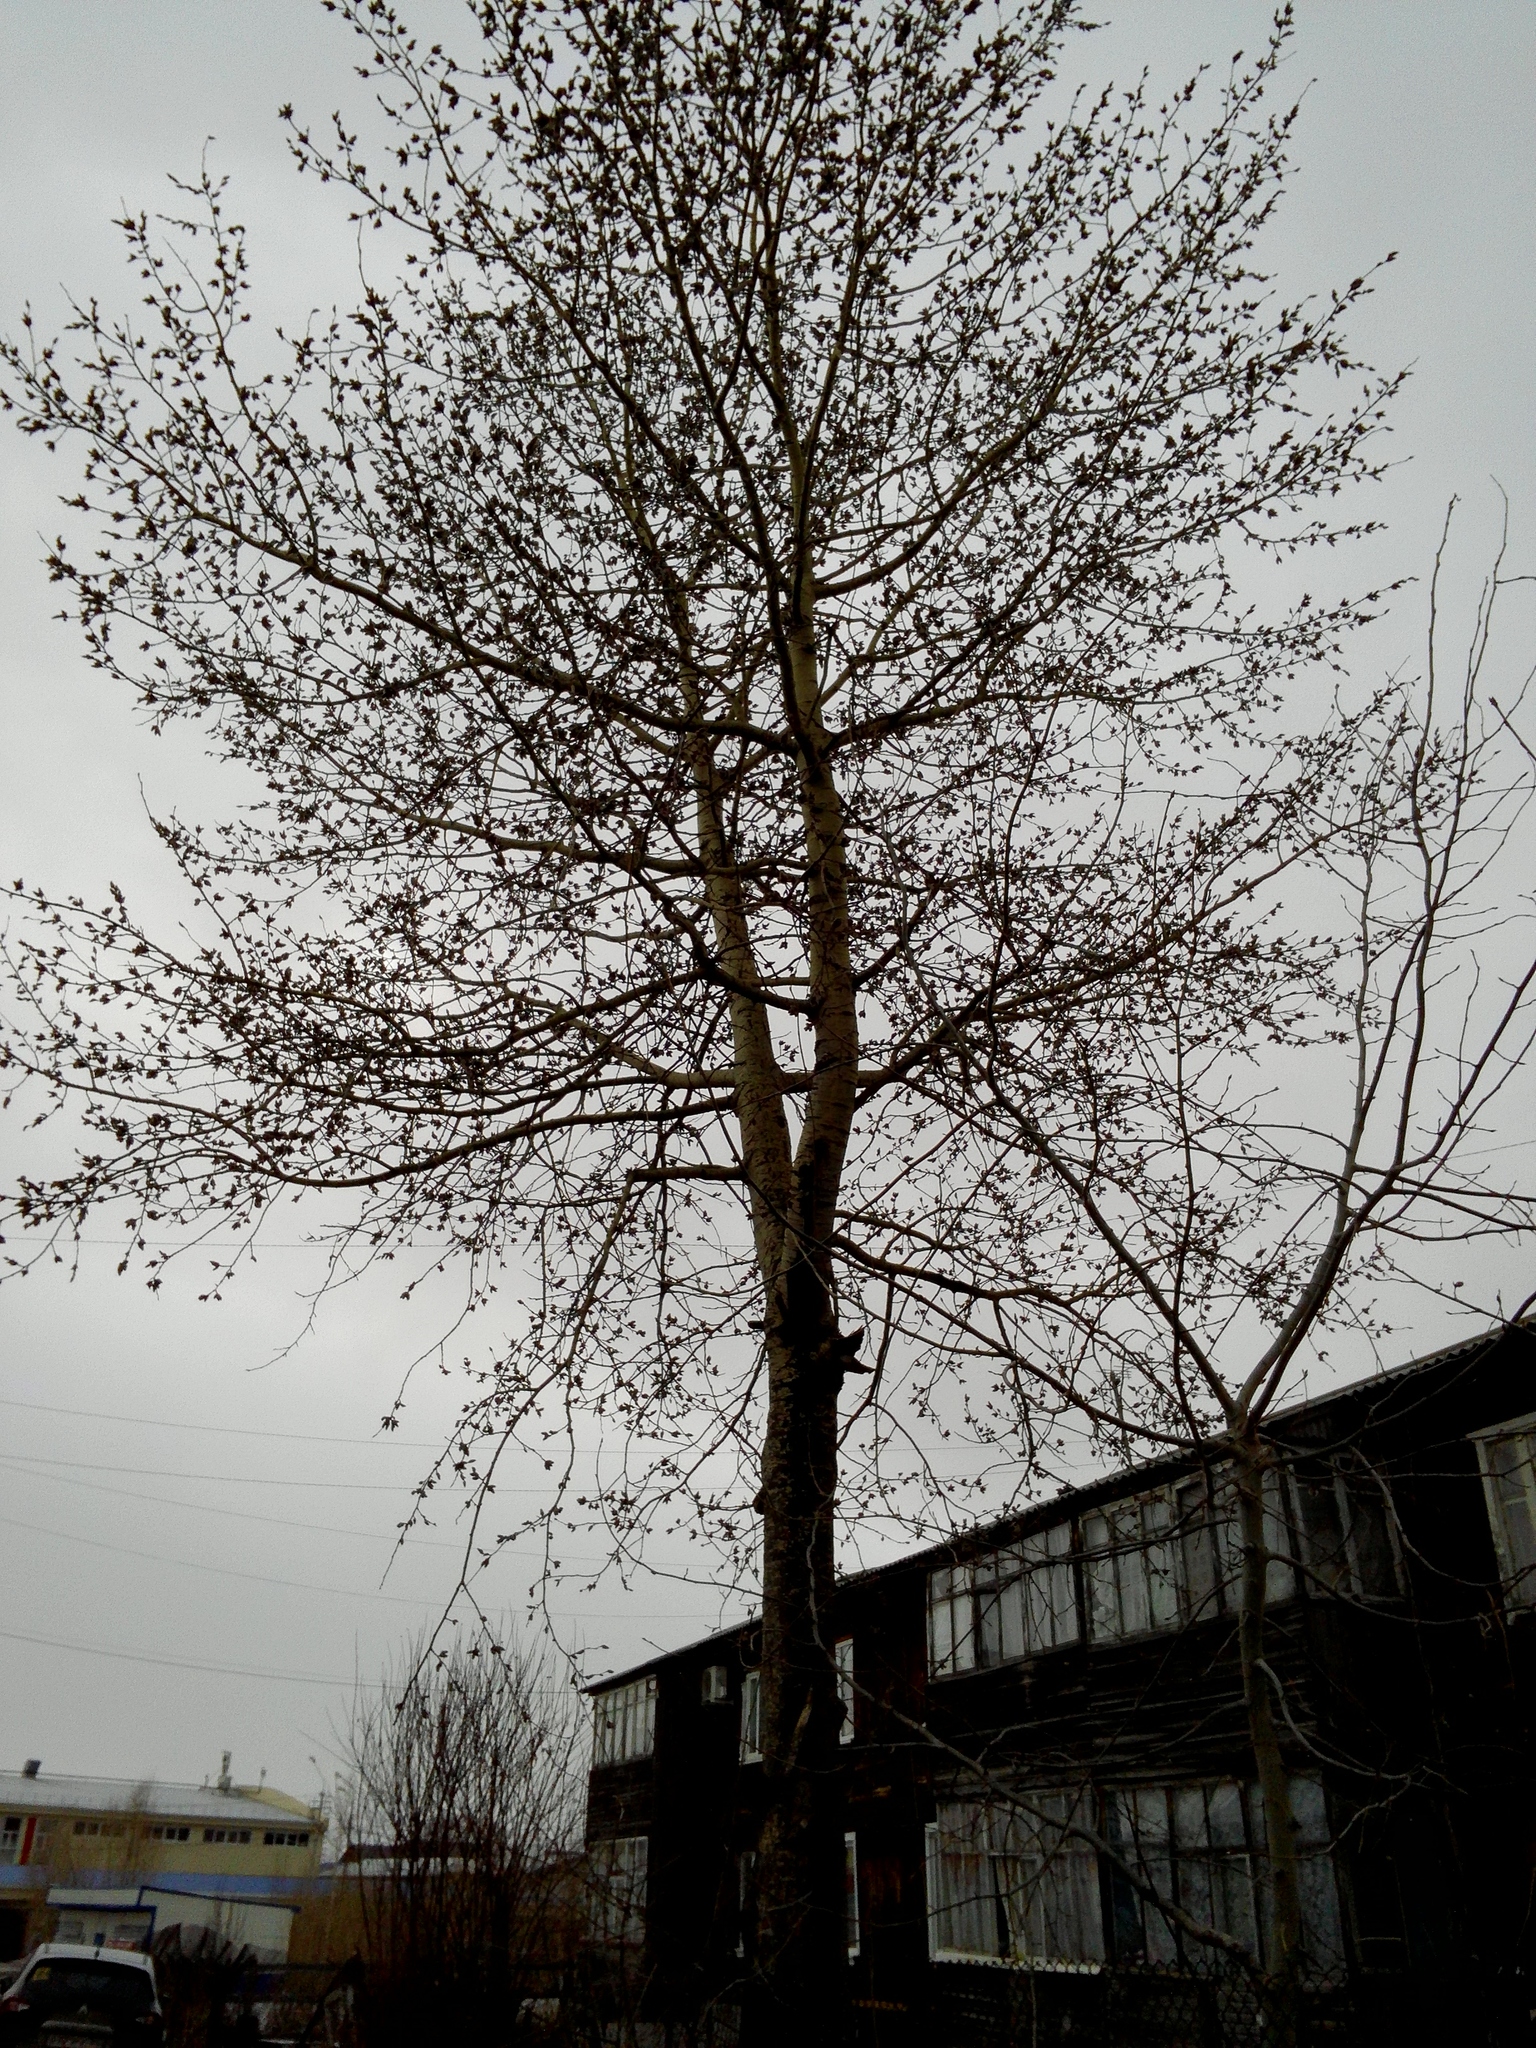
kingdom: Plantae
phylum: Tracheophyta
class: Magnoliopsida
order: Malpighiales
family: Salicaceae
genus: Populus
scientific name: Populus tremula
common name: European aspen
